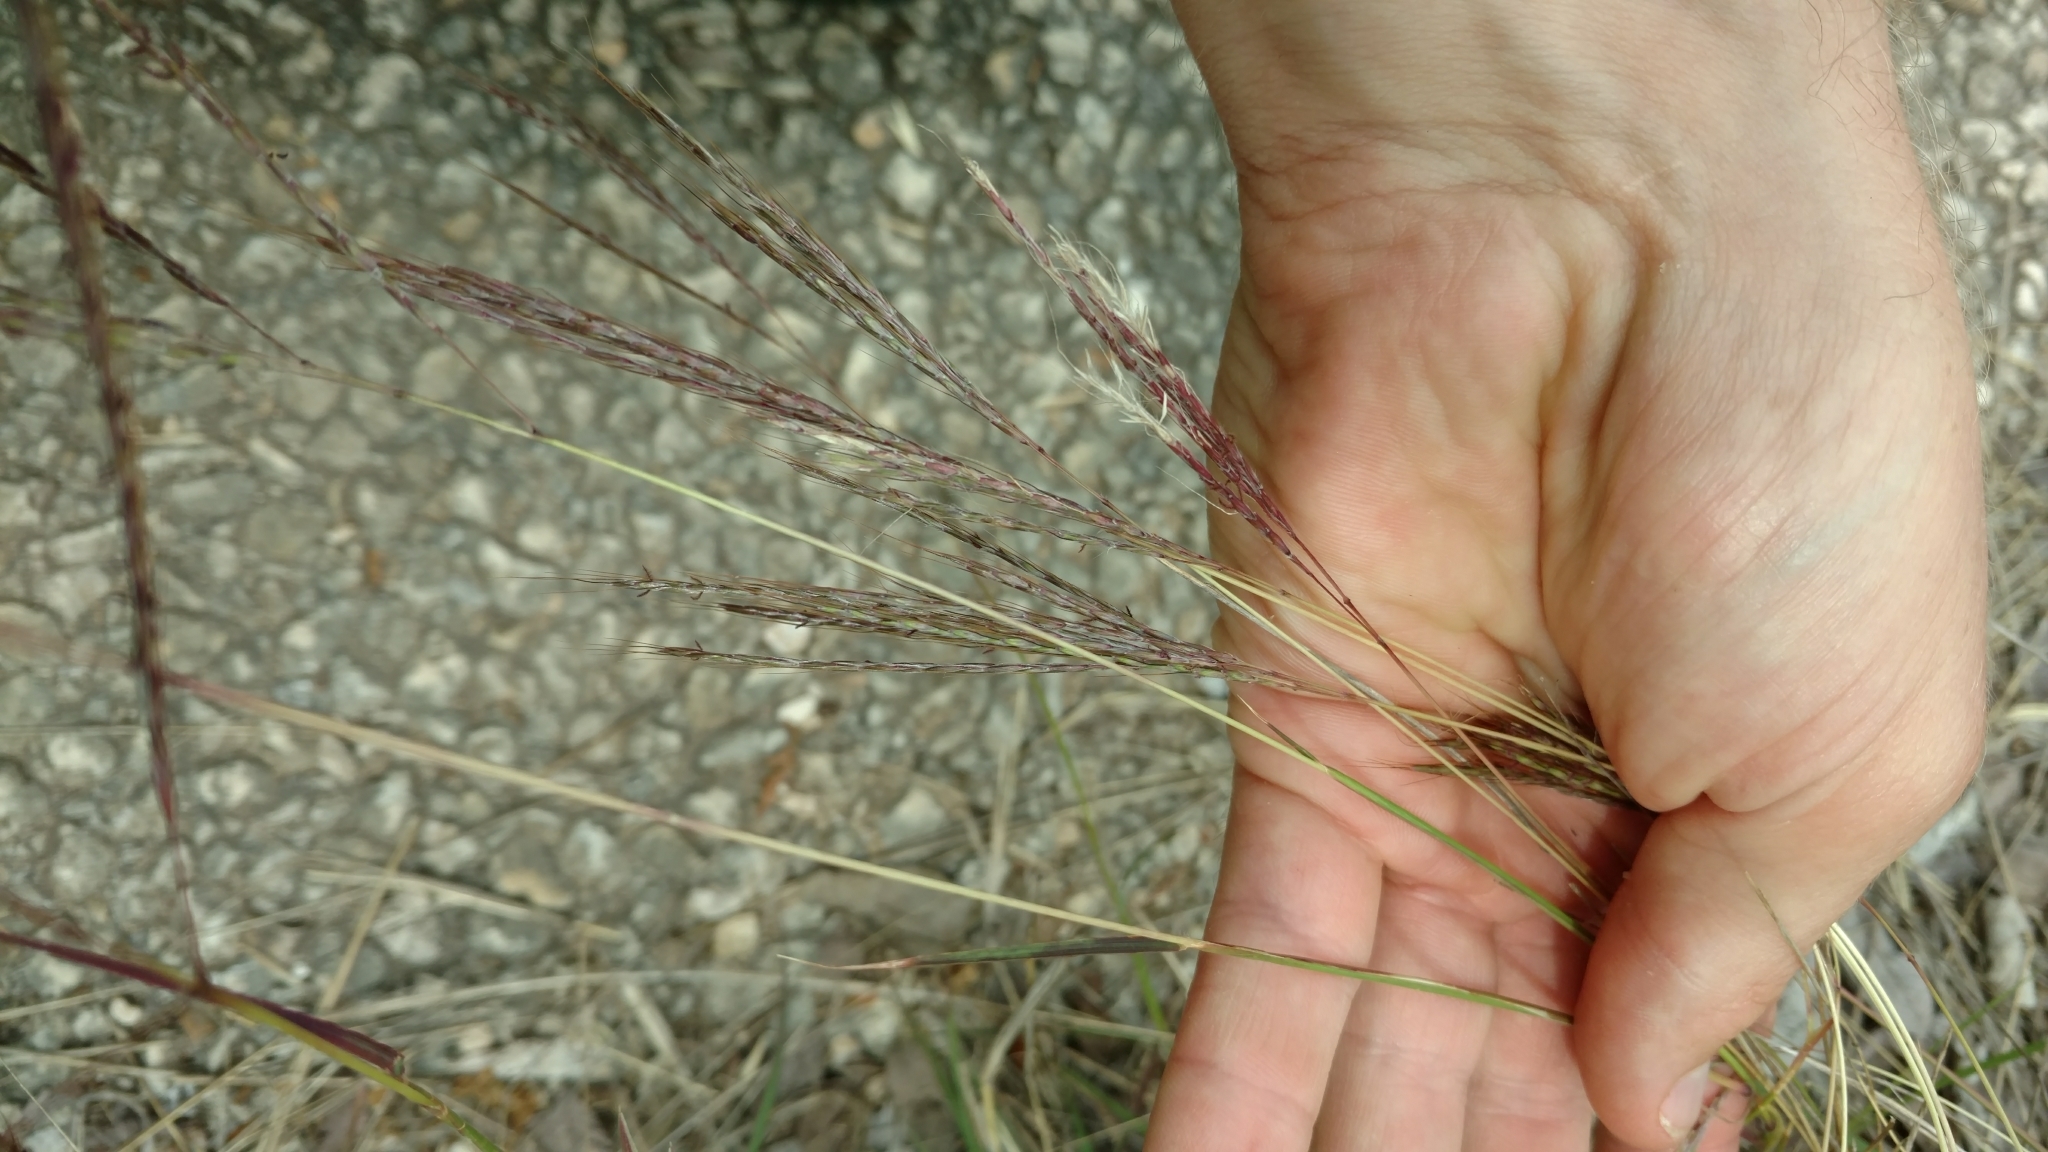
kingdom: Plantae
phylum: Tracheophyta
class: Liliopsida
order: Poales
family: Poaceae
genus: Bothriochloa
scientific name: Bothriochloa ischaemum
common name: Yellow bluestem
